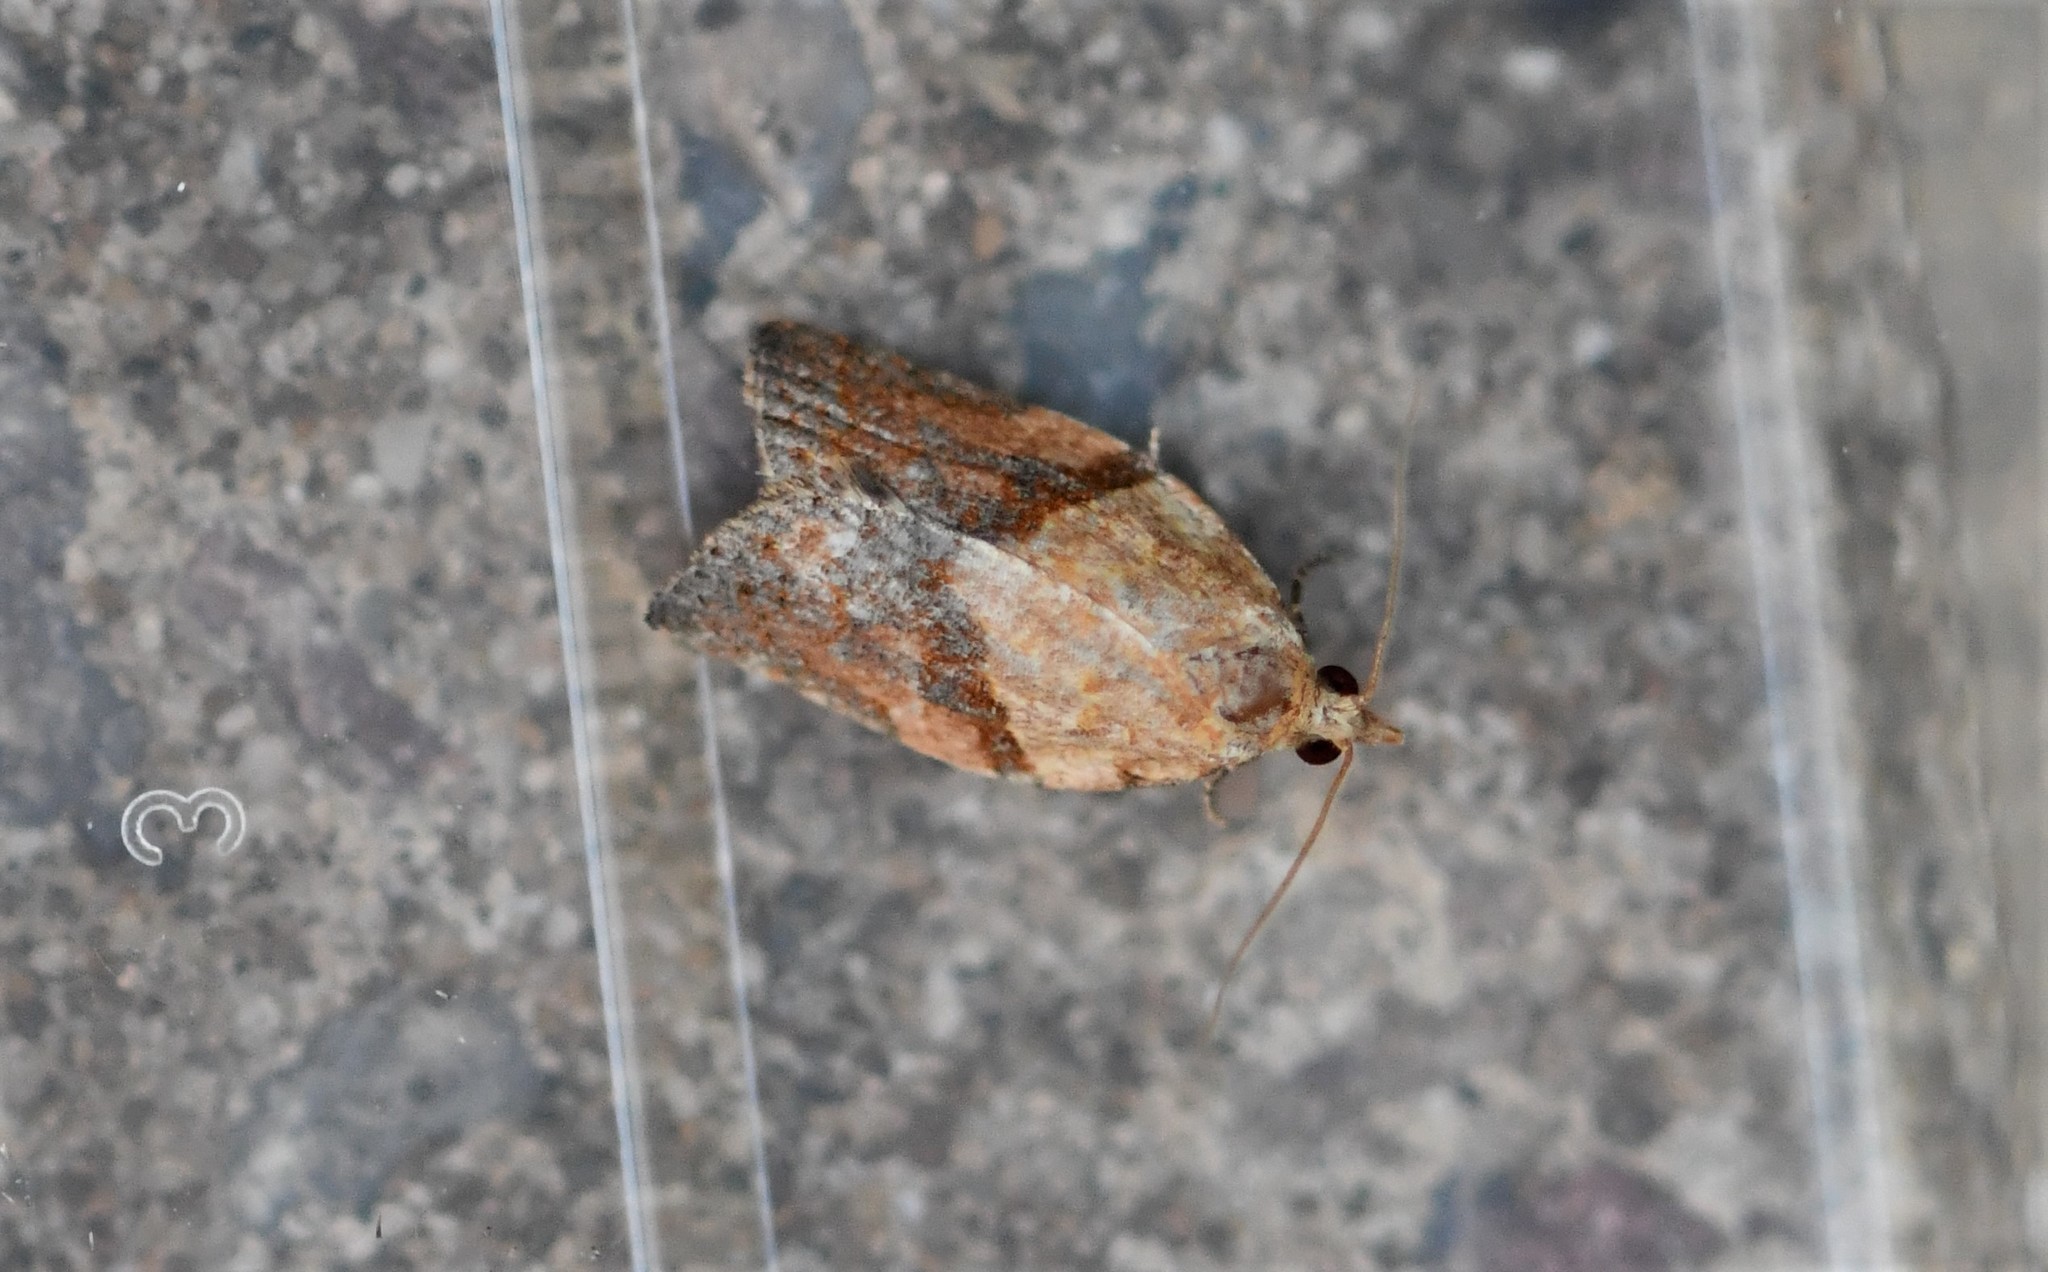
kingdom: Animalia
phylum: Arthropoda
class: Insecta
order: Lepidoptera
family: Tortricidae
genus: Epiphyas
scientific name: Epiphyas postvittana
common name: Light brown apple moth
